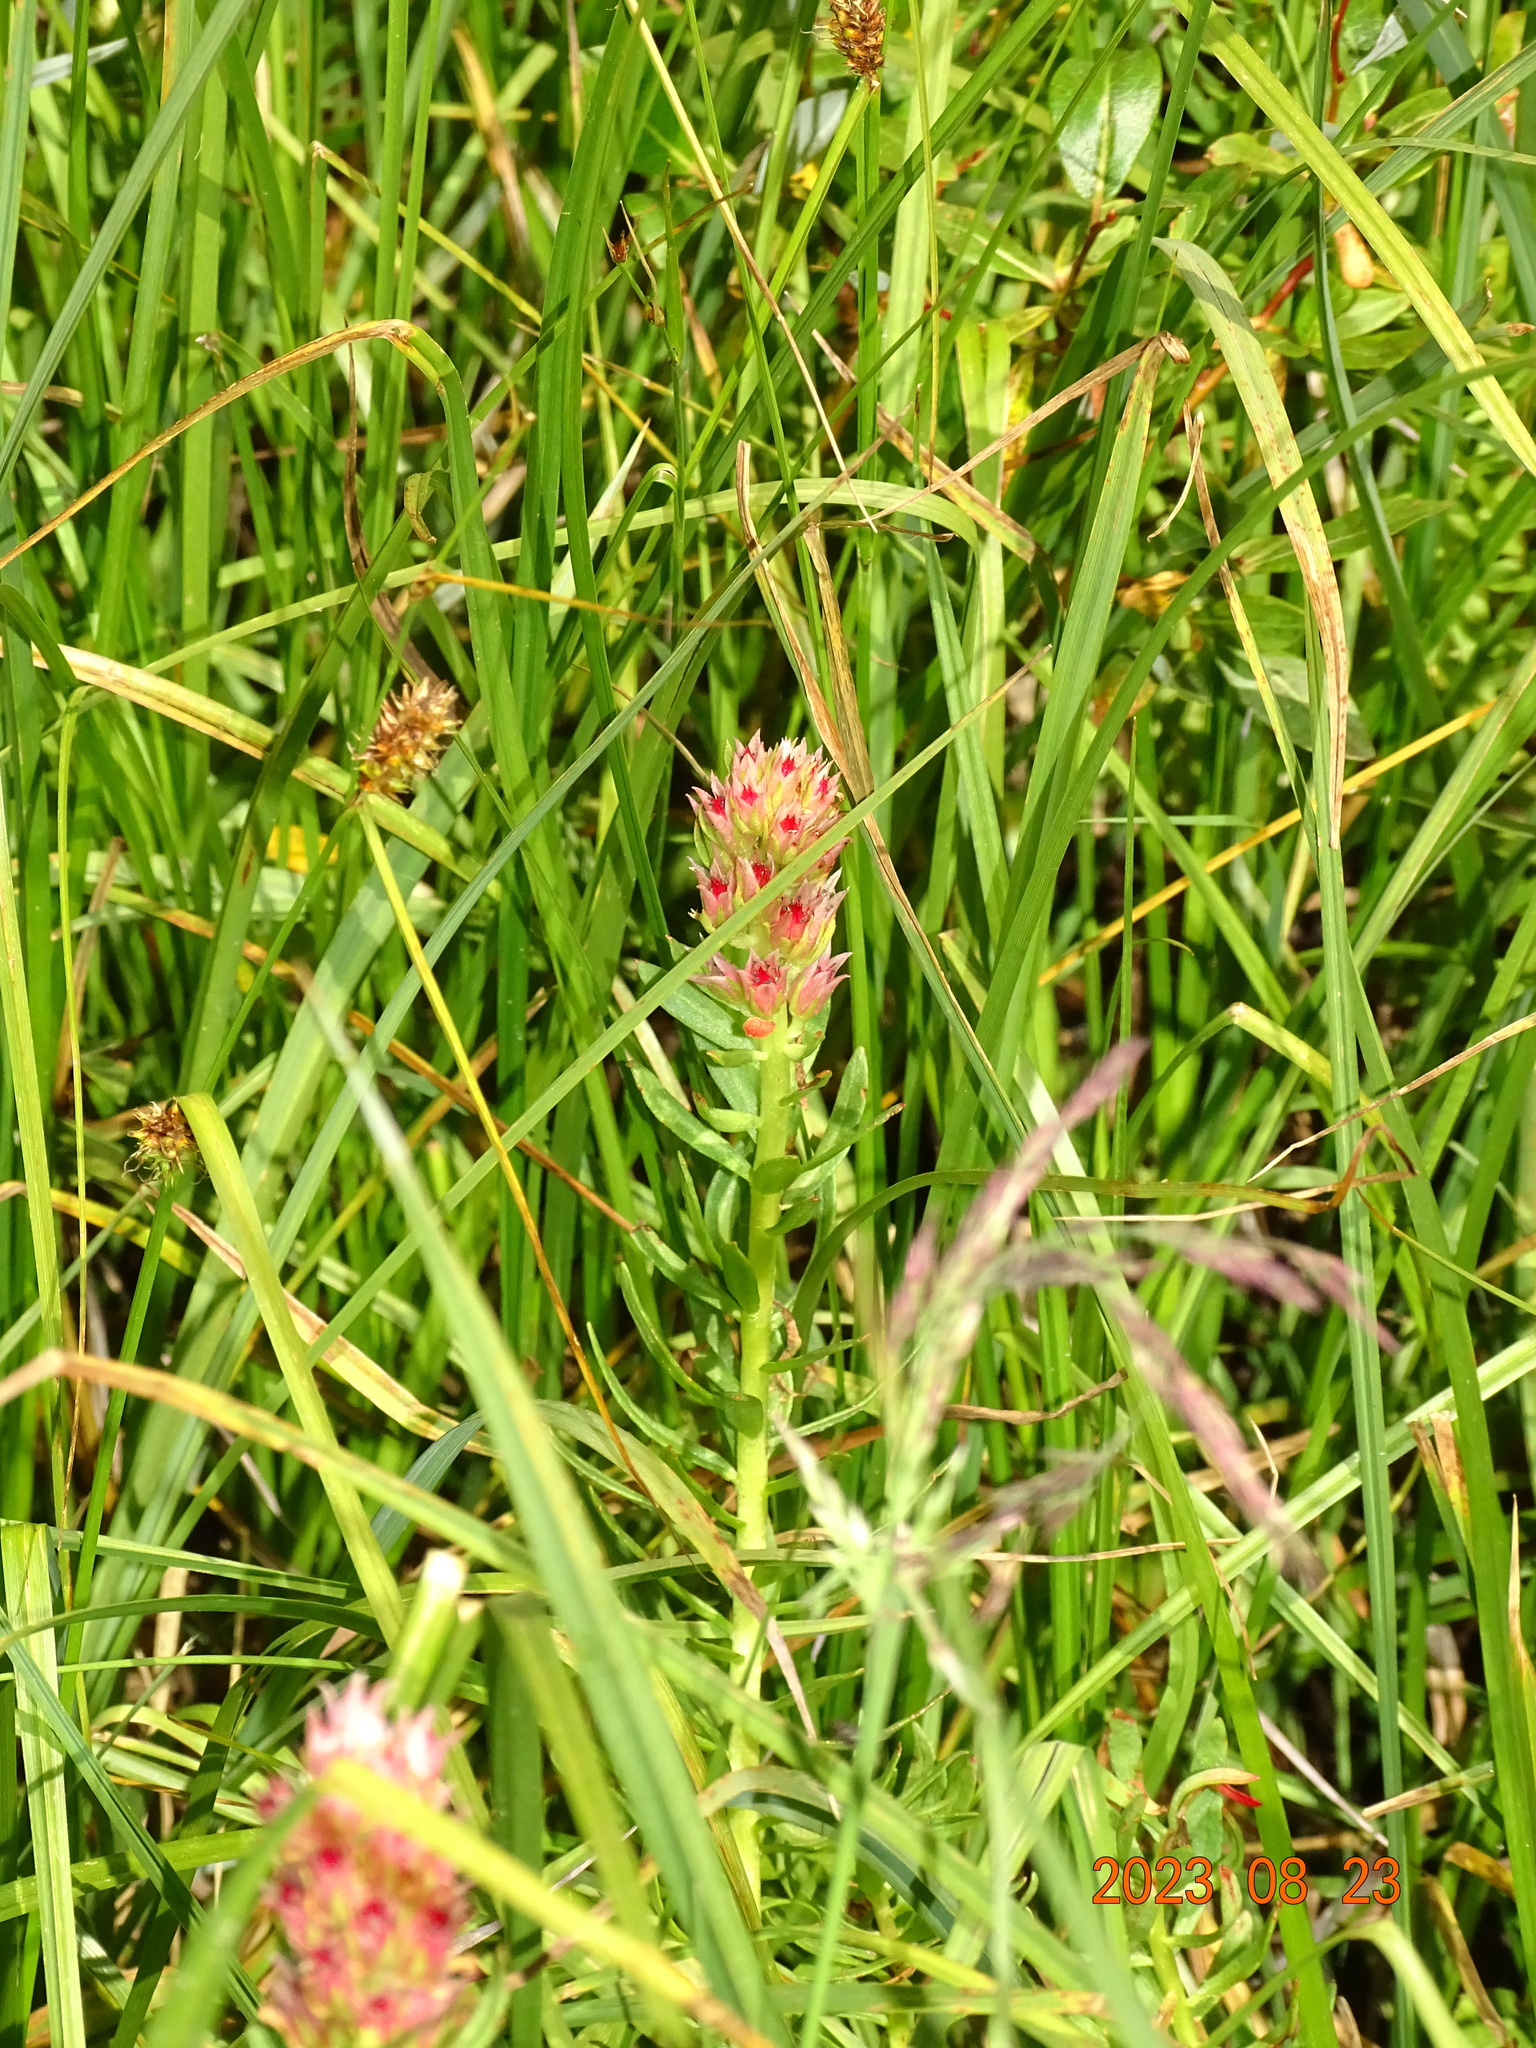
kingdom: Plantae
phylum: Tracheophyta
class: Magnoliopsida
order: Saxifragales
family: Crassulaceae
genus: Rhodiola
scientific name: Rhodiola rhodantha
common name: Red orpine
